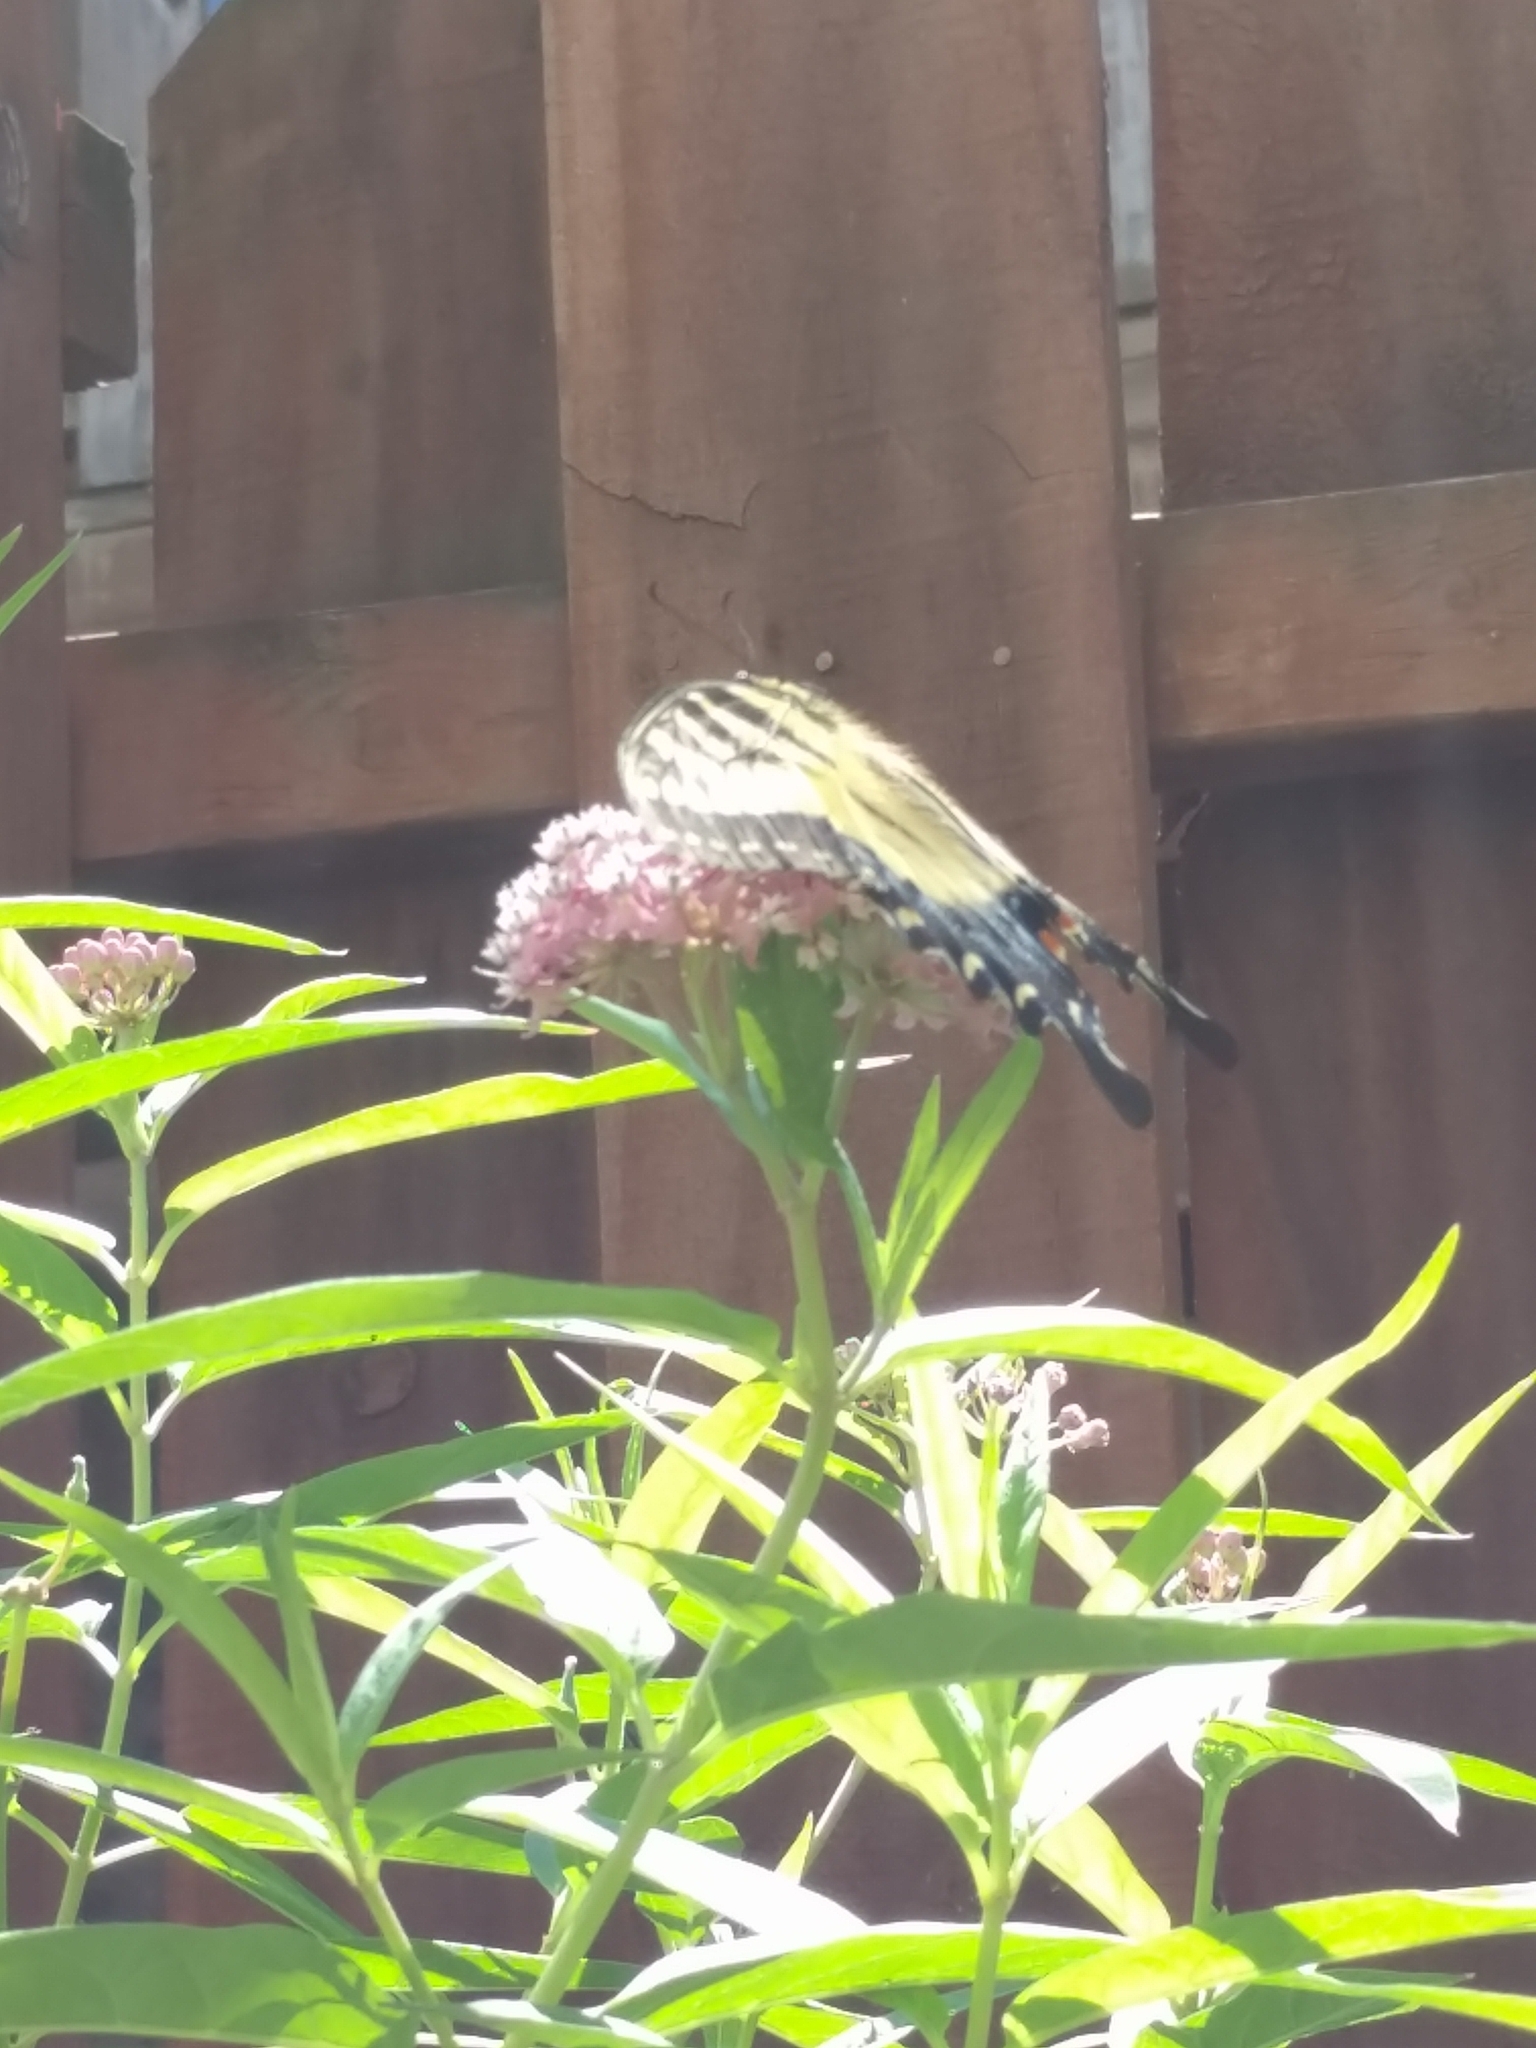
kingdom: Animalia
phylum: Arthropoda
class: Insecta
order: Lepidoptera
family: Papilionidae
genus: Papilio
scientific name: Papilio glaucus
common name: Tiger swallowtail
